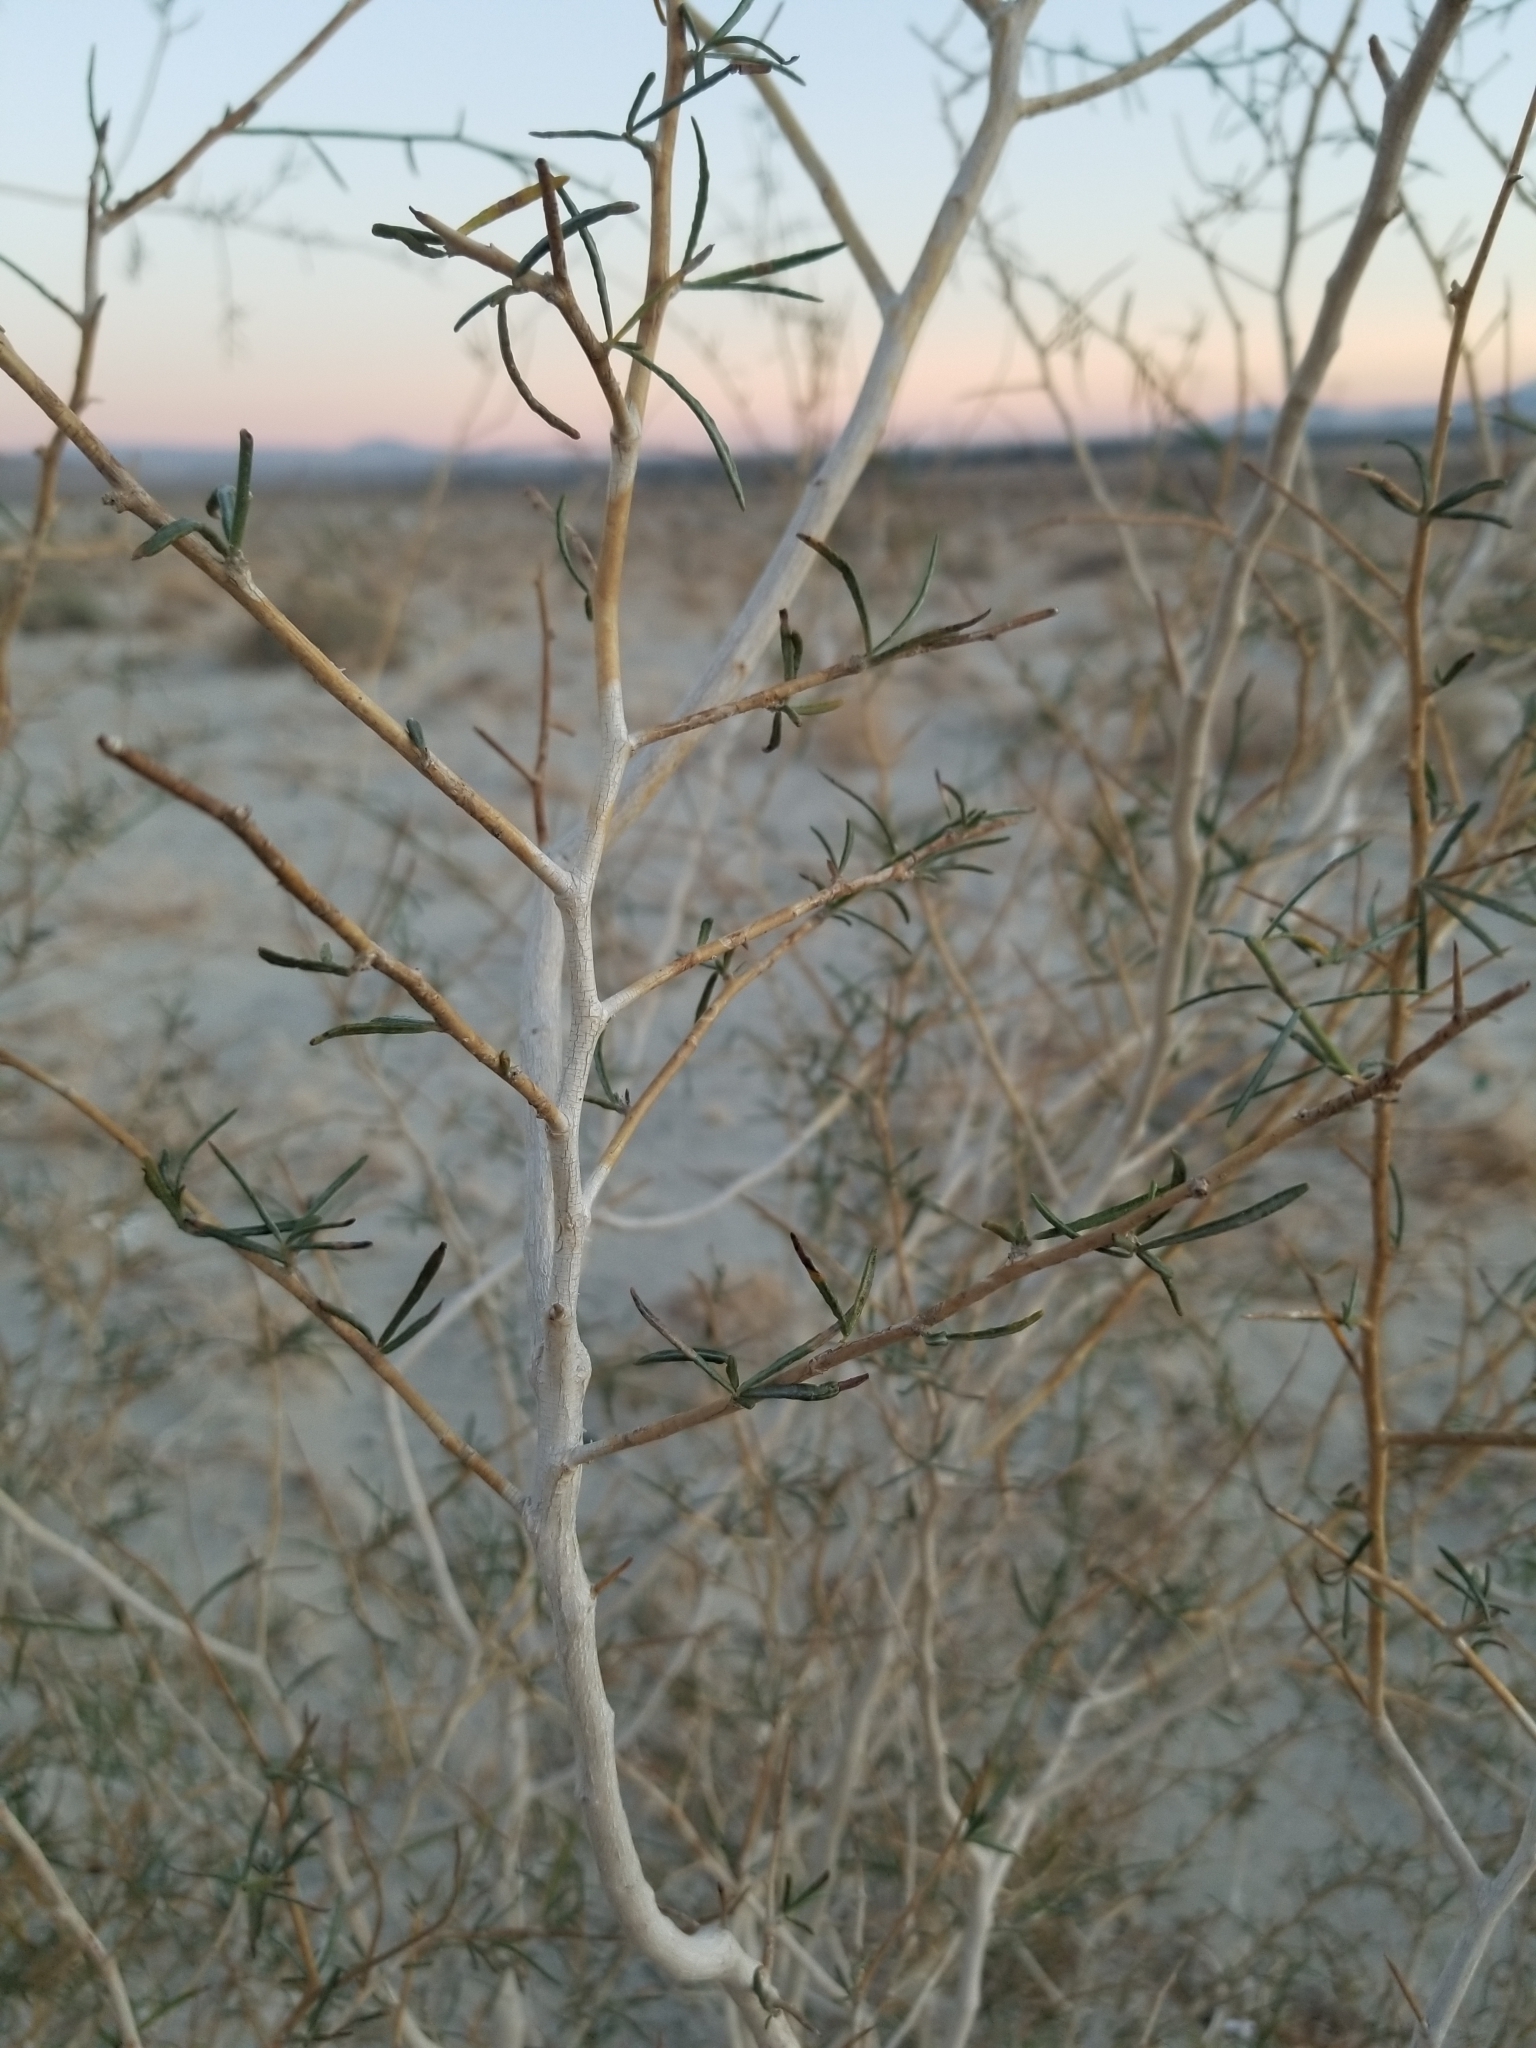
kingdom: Plantae
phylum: Tracheophyta
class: Magnoliopsida
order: Fabales
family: Fabaceae
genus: Psorothamnus
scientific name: Psorothamnus schottii
